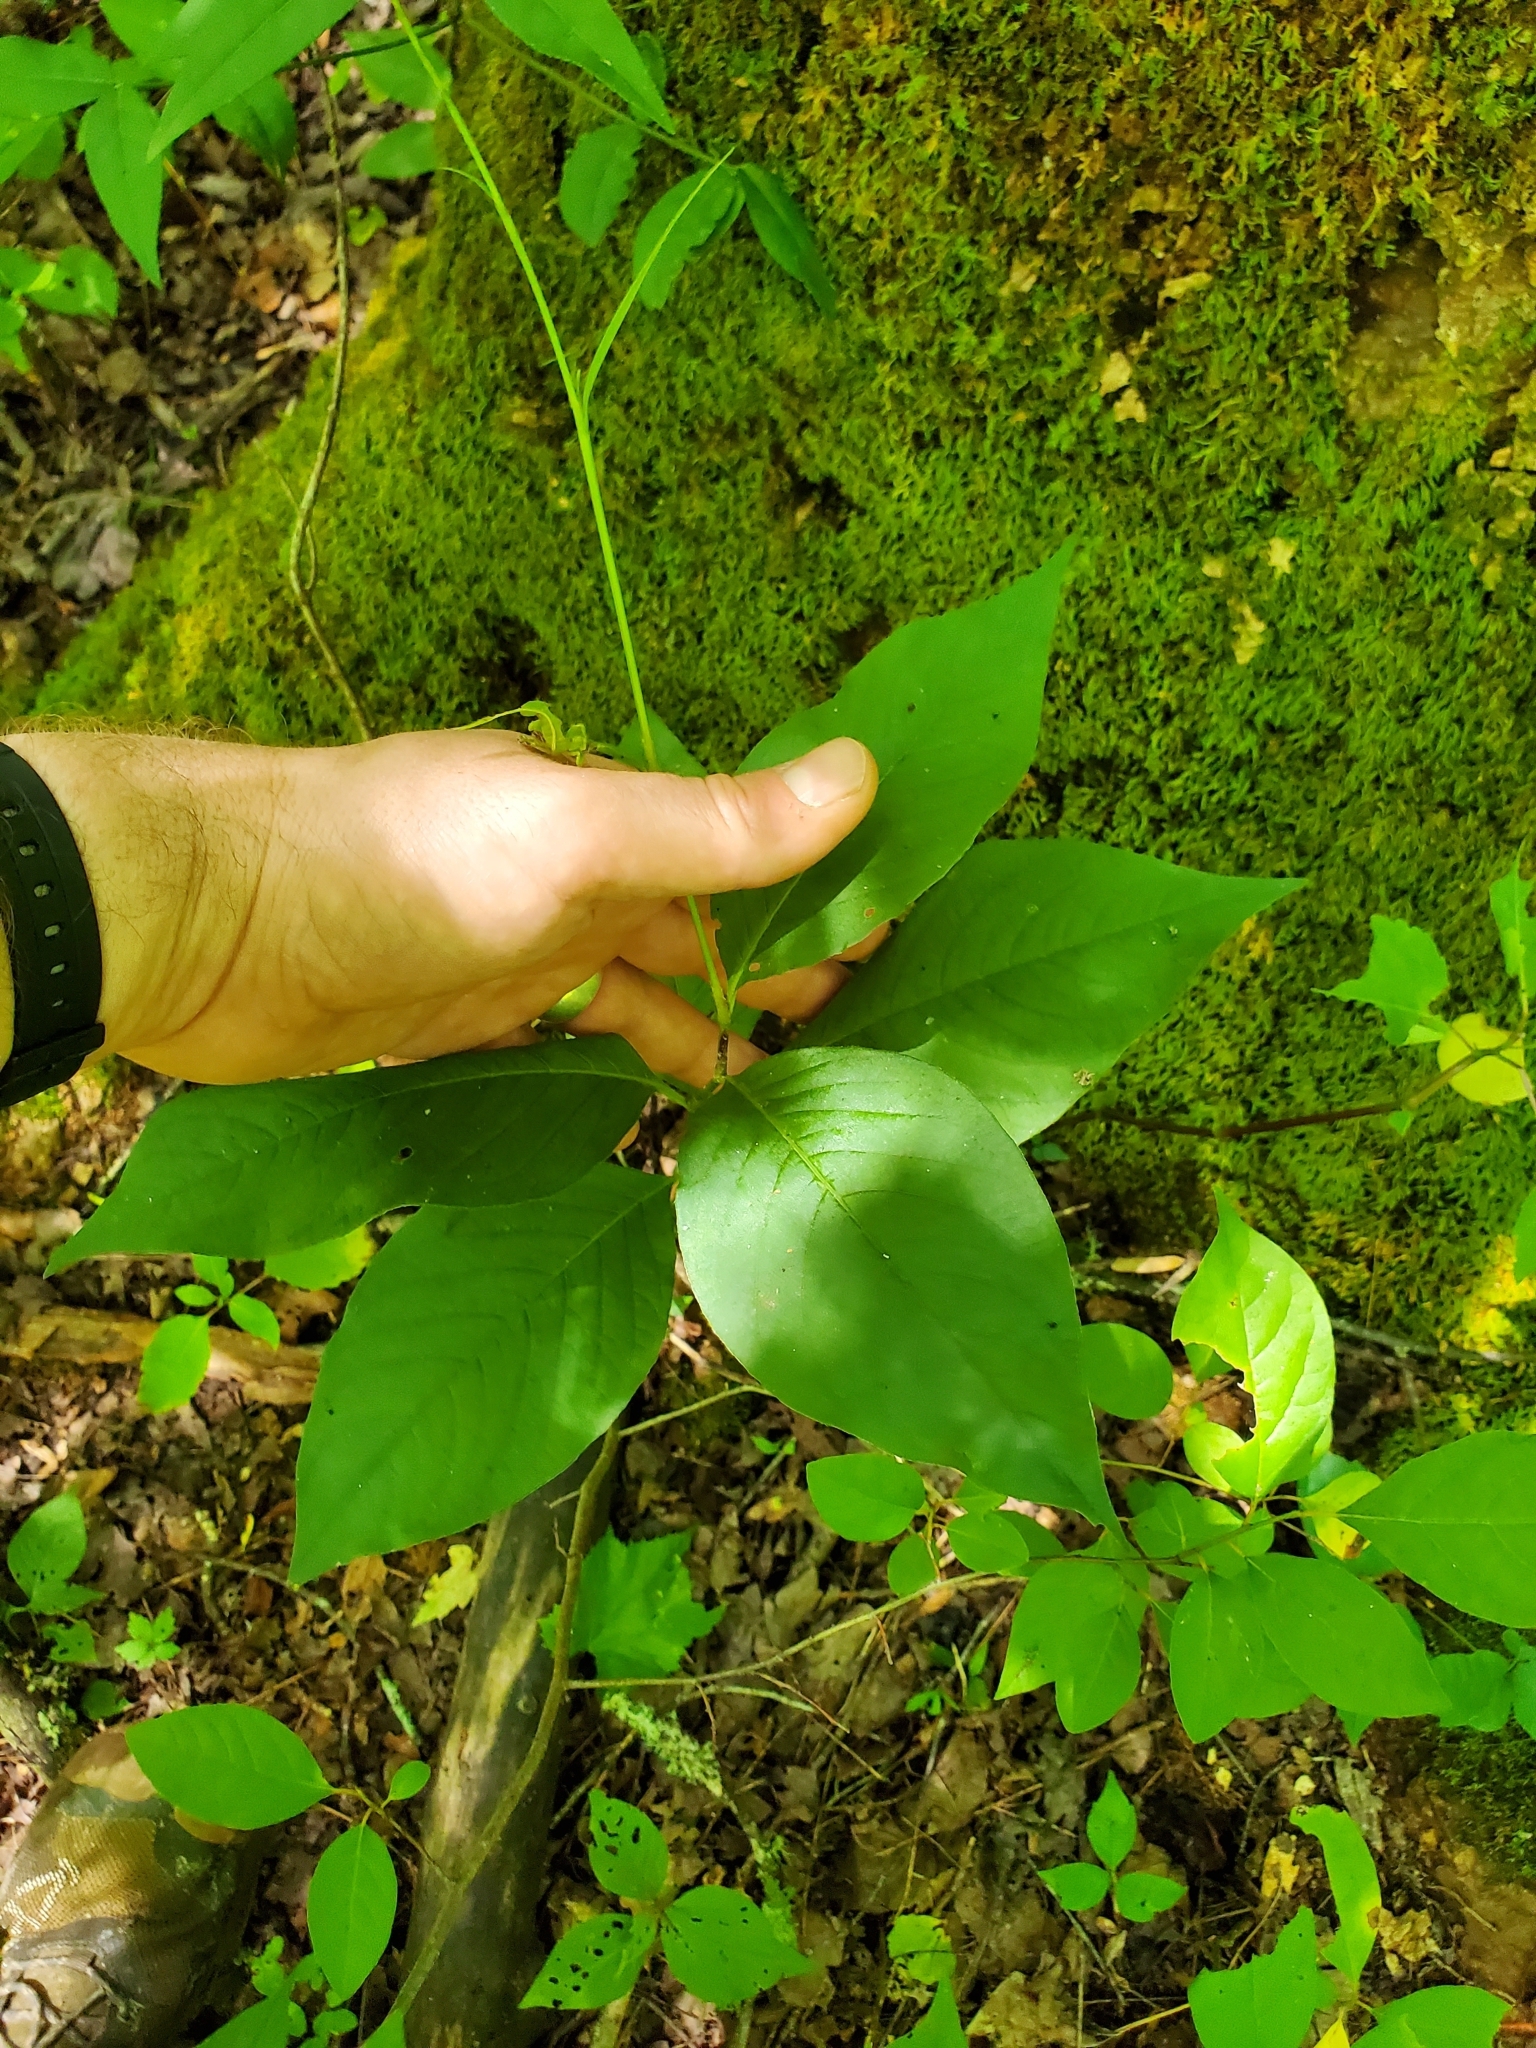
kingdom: Plantae
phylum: Tracheophyta
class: Magnoliopsida
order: Caryophyllales
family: Polygonaceae
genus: Persicaria
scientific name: Persicaria virginiana
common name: Jumpseed
